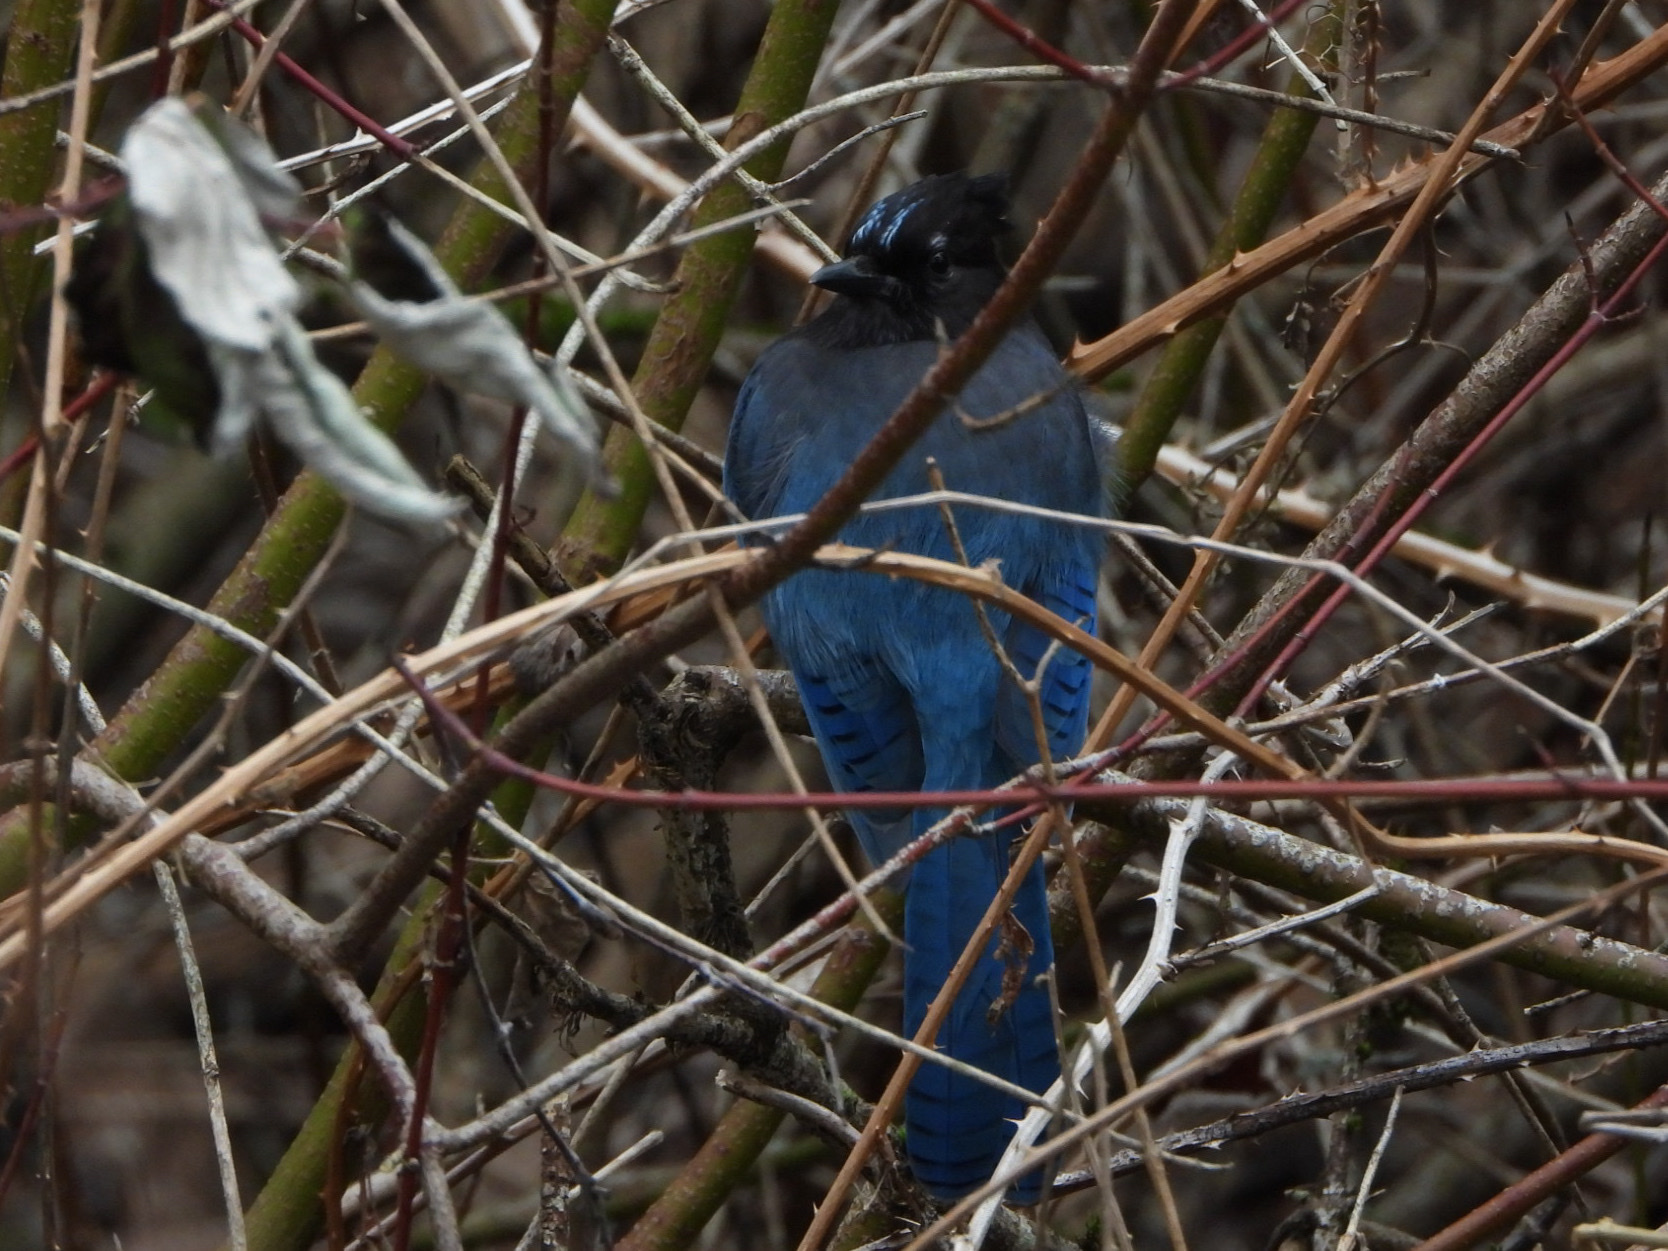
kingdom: Animalia
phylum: Chordata
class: Aves
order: Passeriformes
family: Corvidae
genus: Cyanocitta
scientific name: Cyanocitta stelleri
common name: Steller's jay
